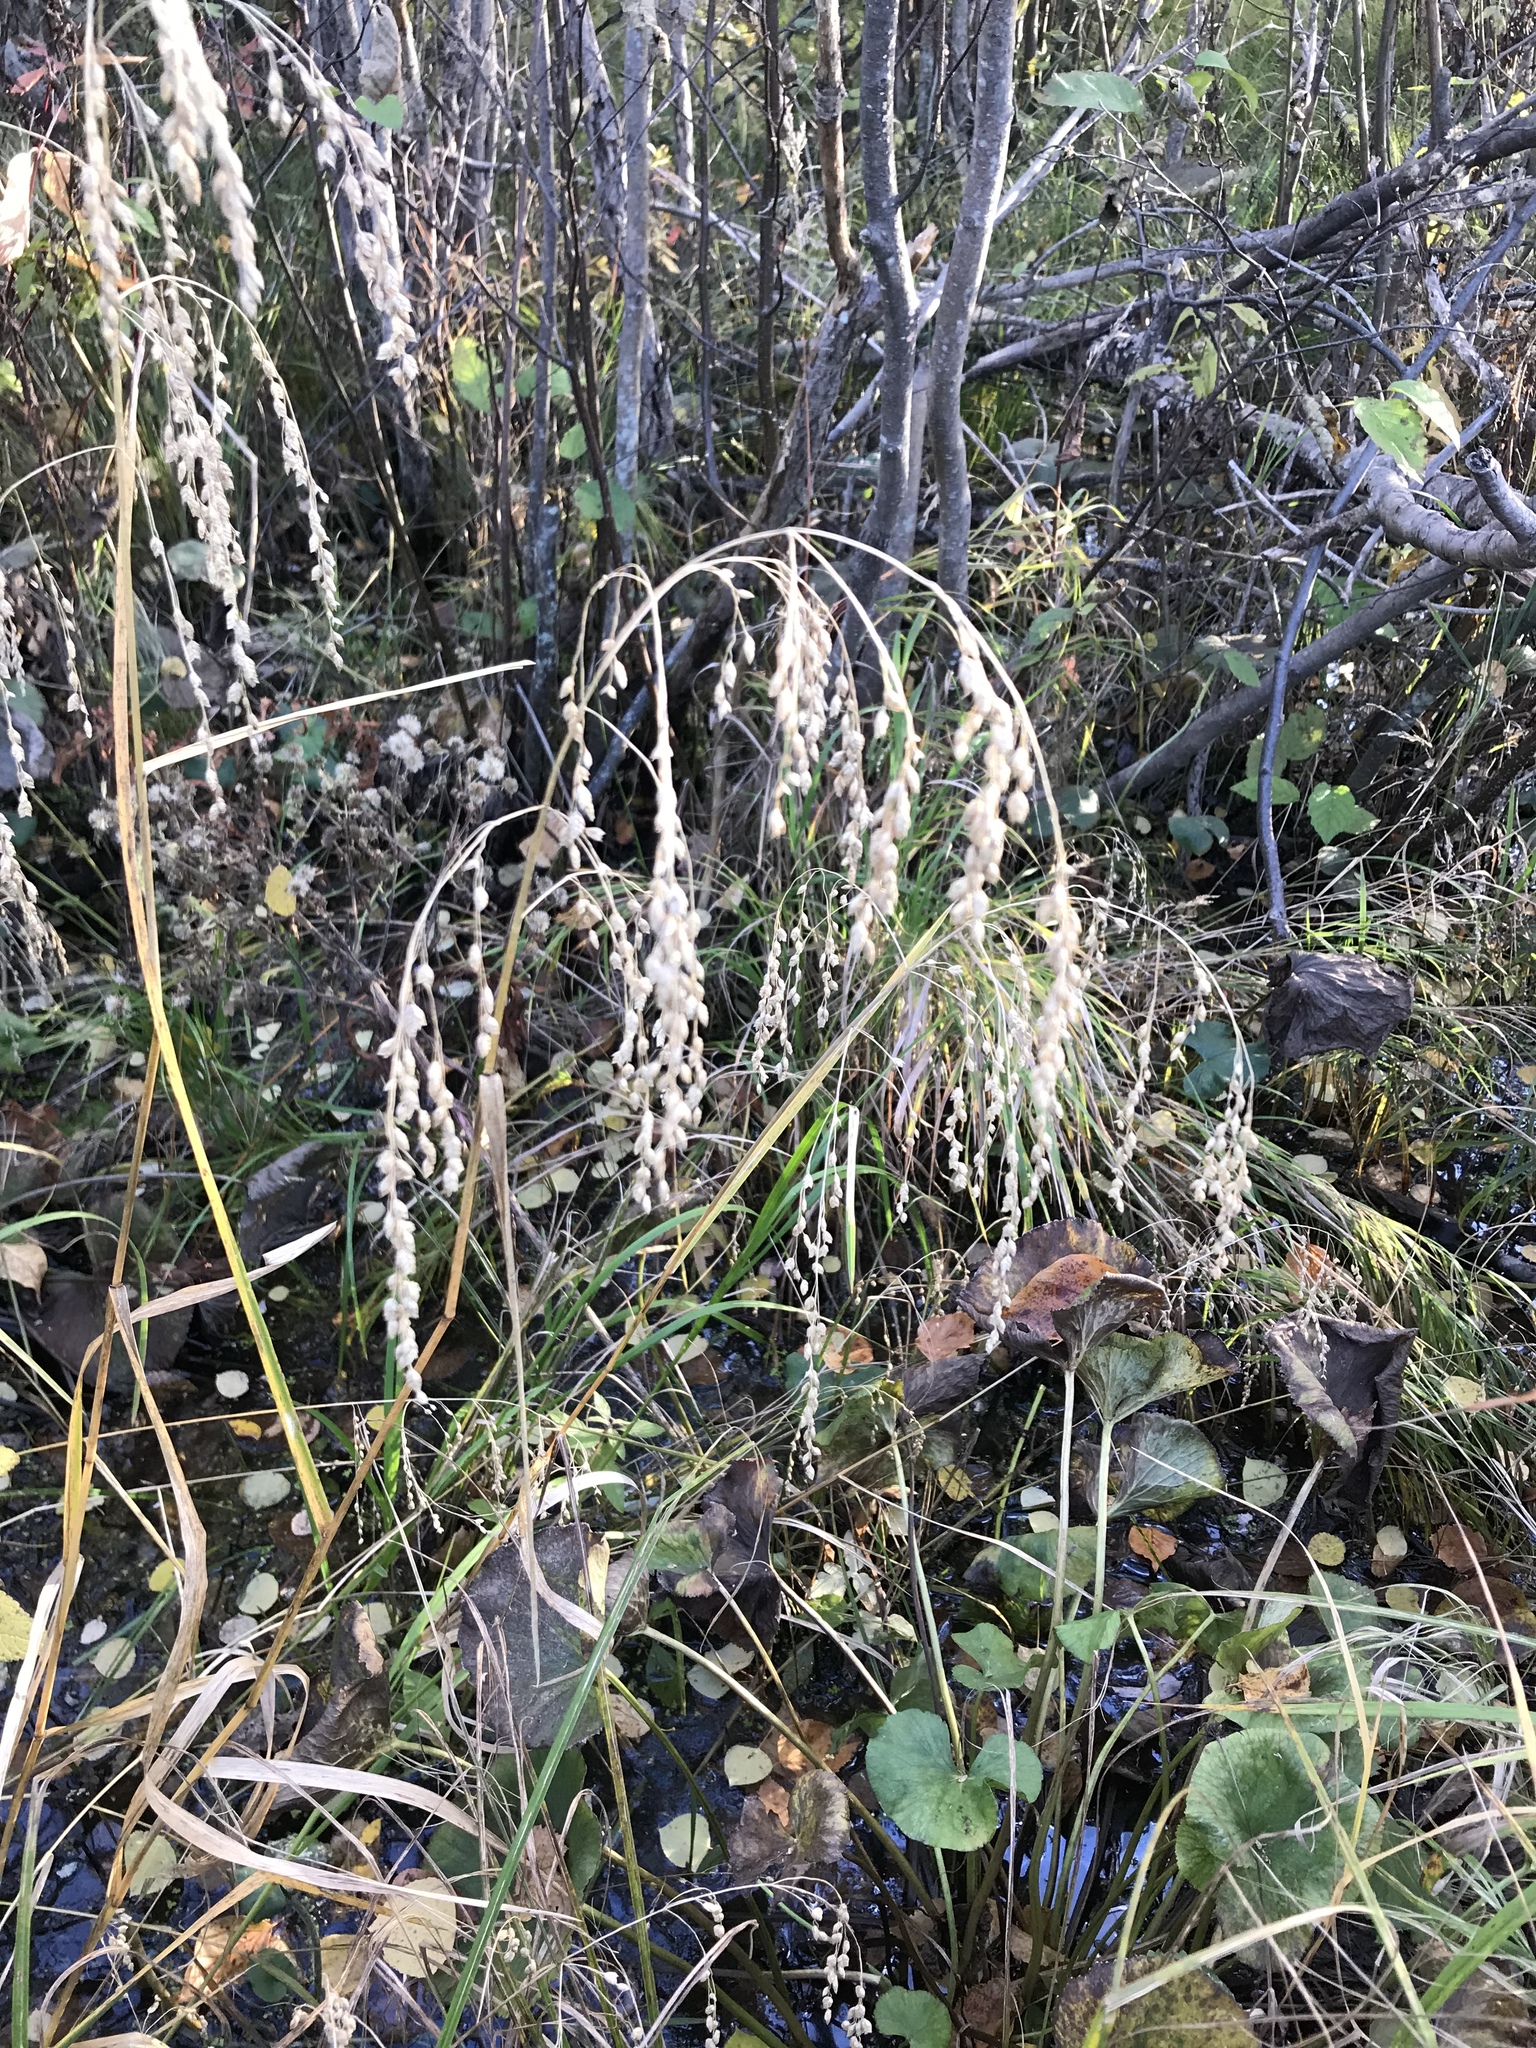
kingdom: Plantae
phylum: Tracheophyta
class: Liliopsida
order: Poales
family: Poaceae
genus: Glyceria
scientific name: Glyceria canadensis
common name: Canada mannagrass
